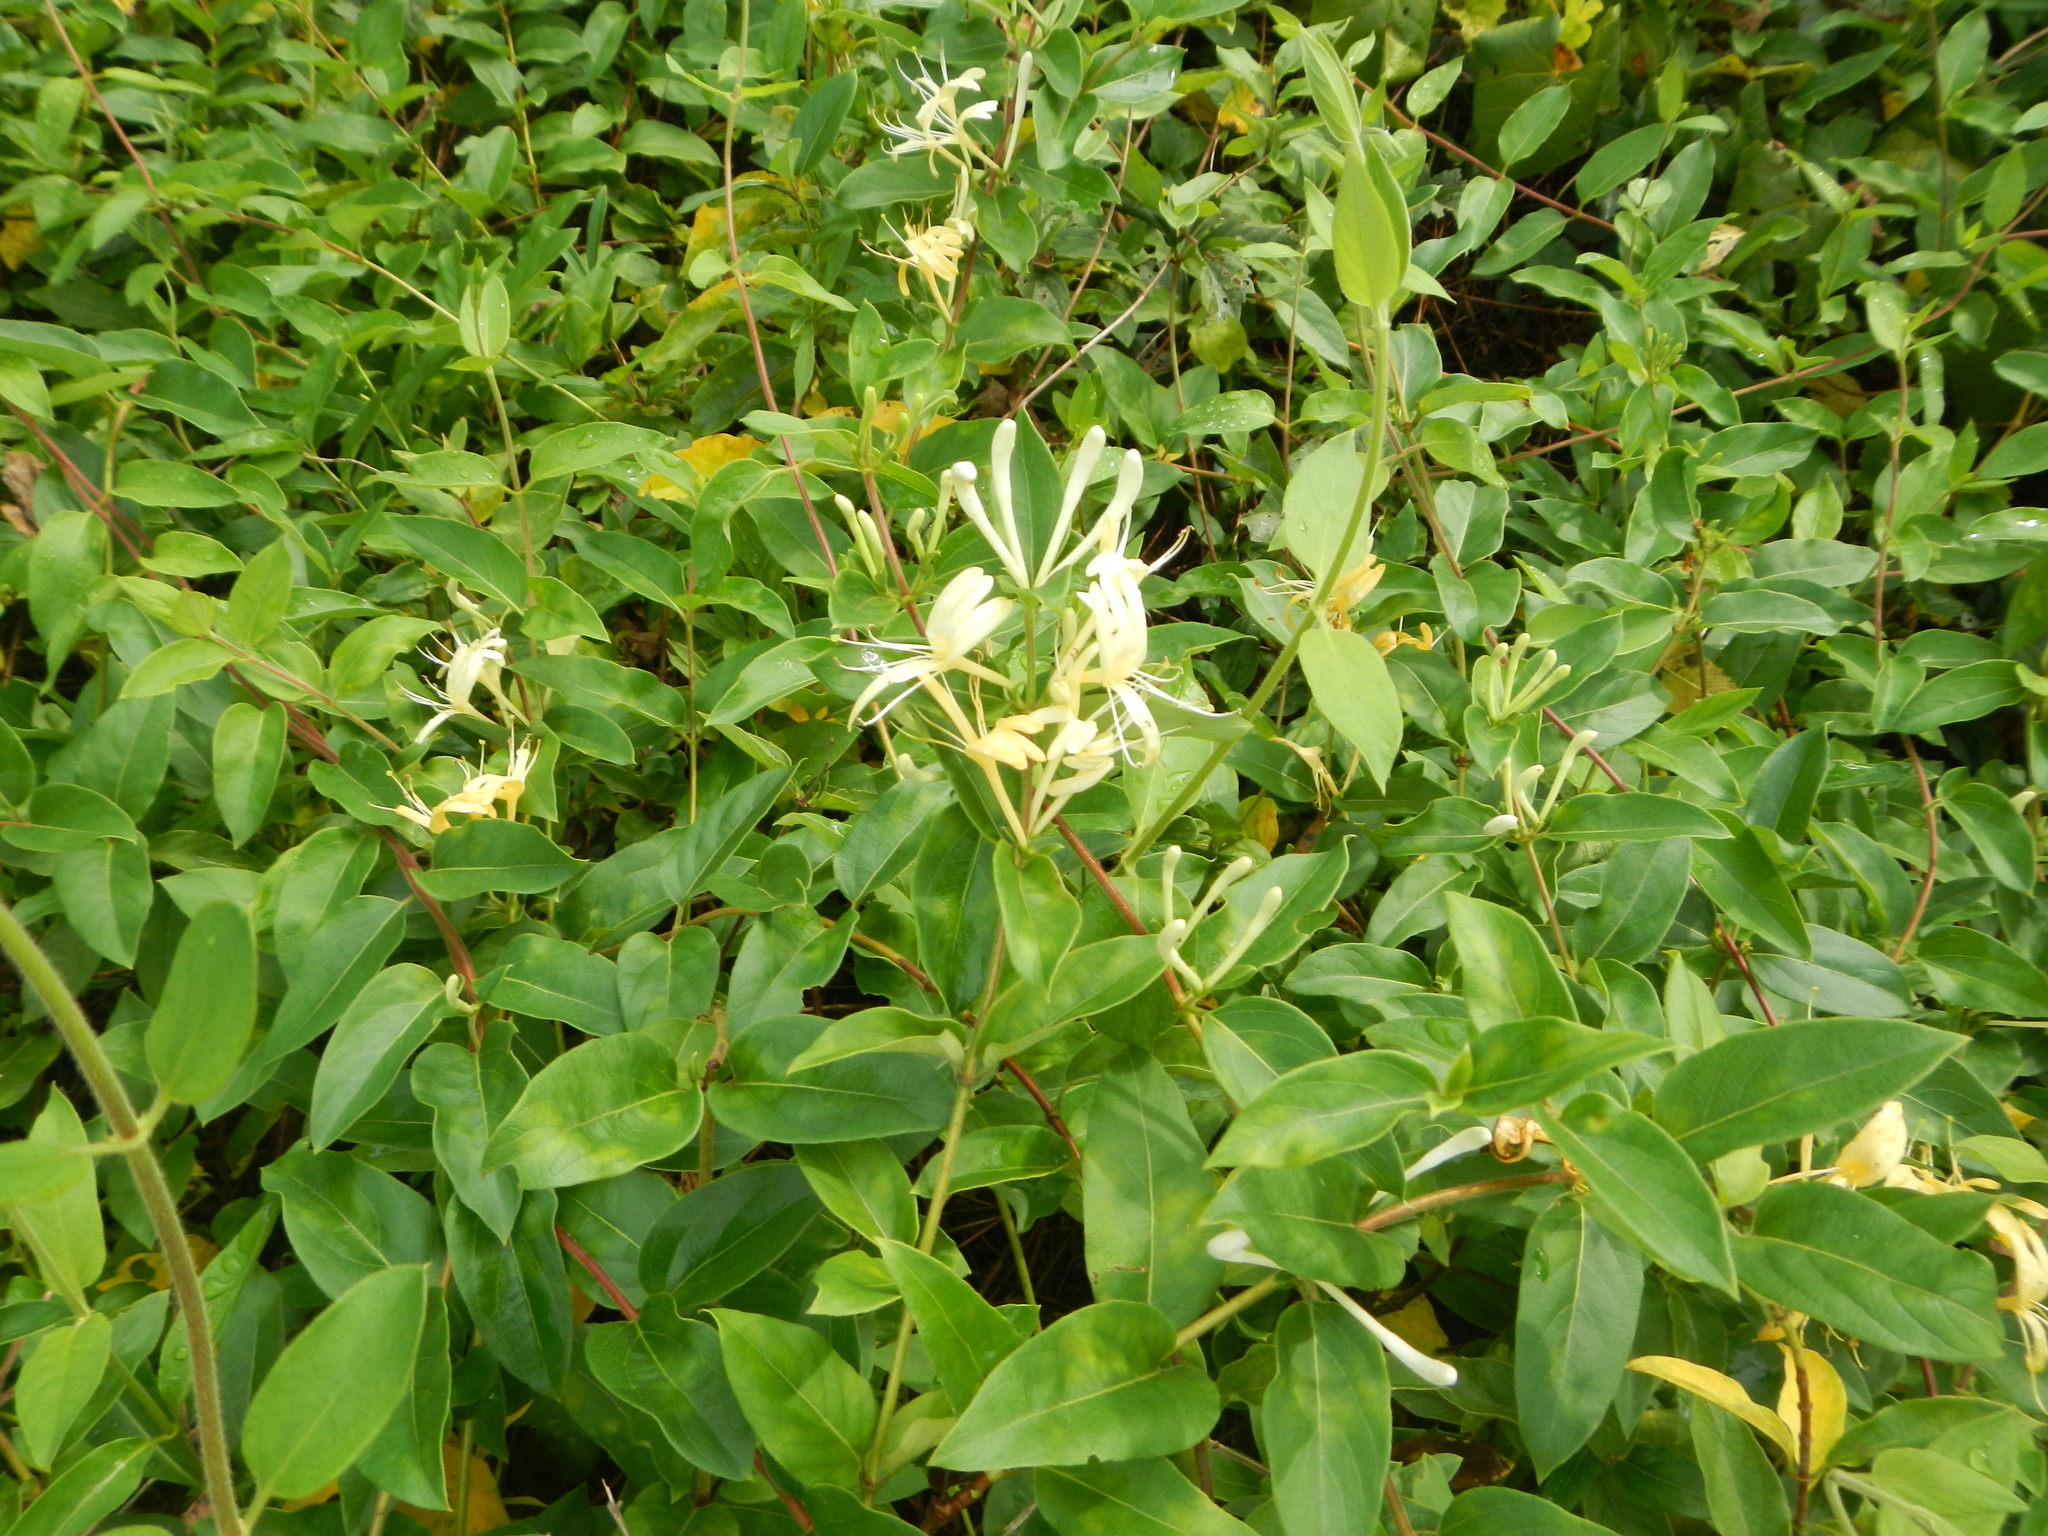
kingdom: Plantae
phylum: Tracheophyta
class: Magnoliopsida
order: Dipsacales
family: Caprifoliaceae
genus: Lonicera
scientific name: Lonicera japonica
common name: Japanese honeysuckle
